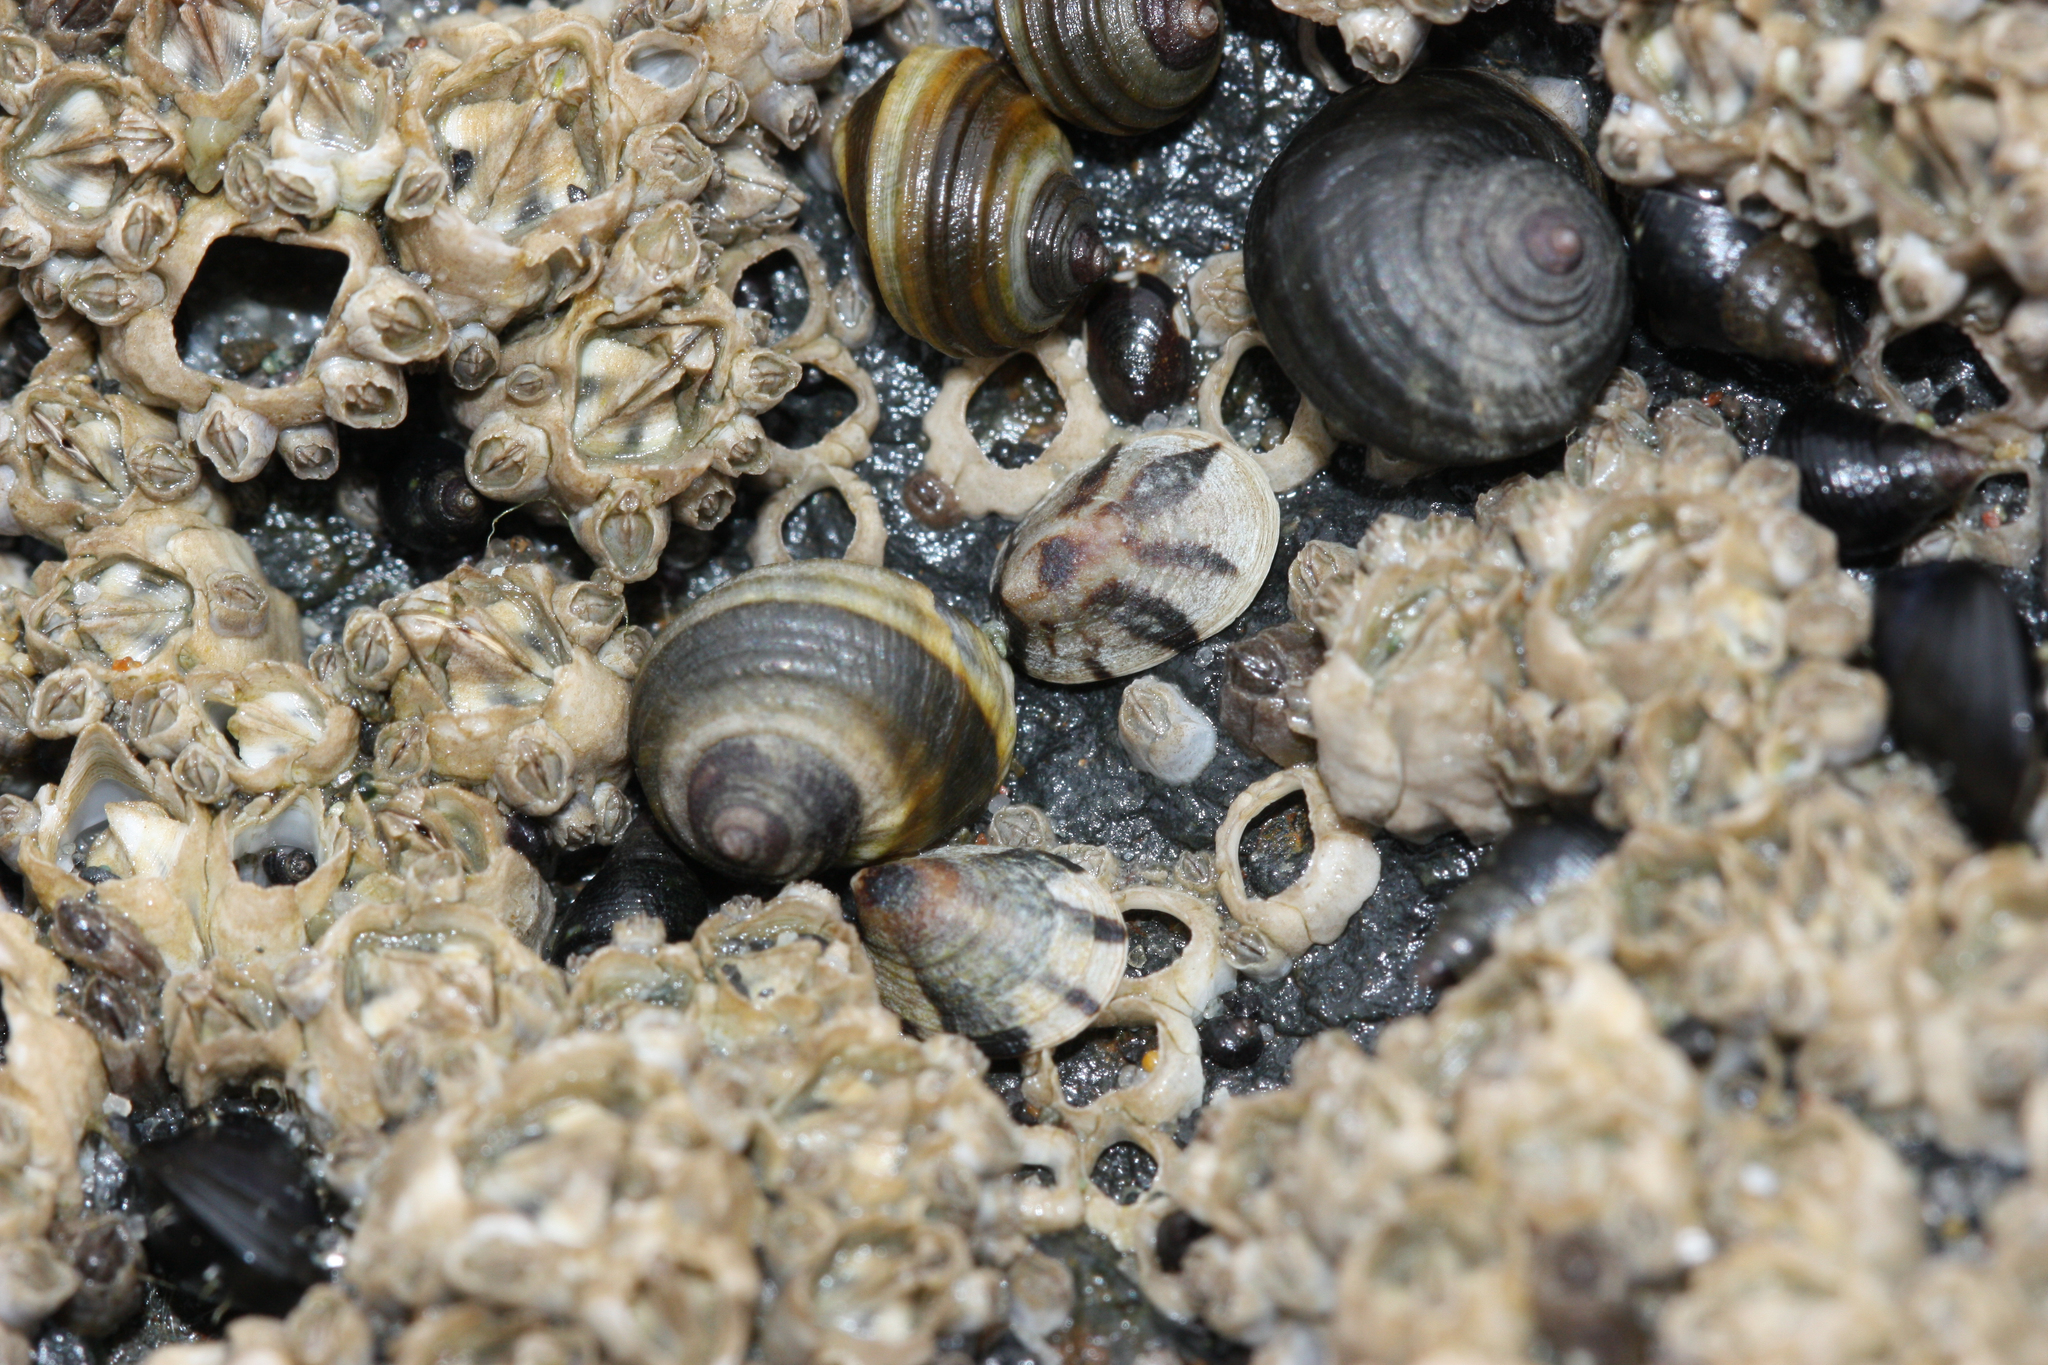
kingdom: Animalia
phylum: Mollusca
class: Gastropoda
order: Littorinimorpha
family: Littorinidae
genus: Littorina
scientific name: Littorina sitkana
